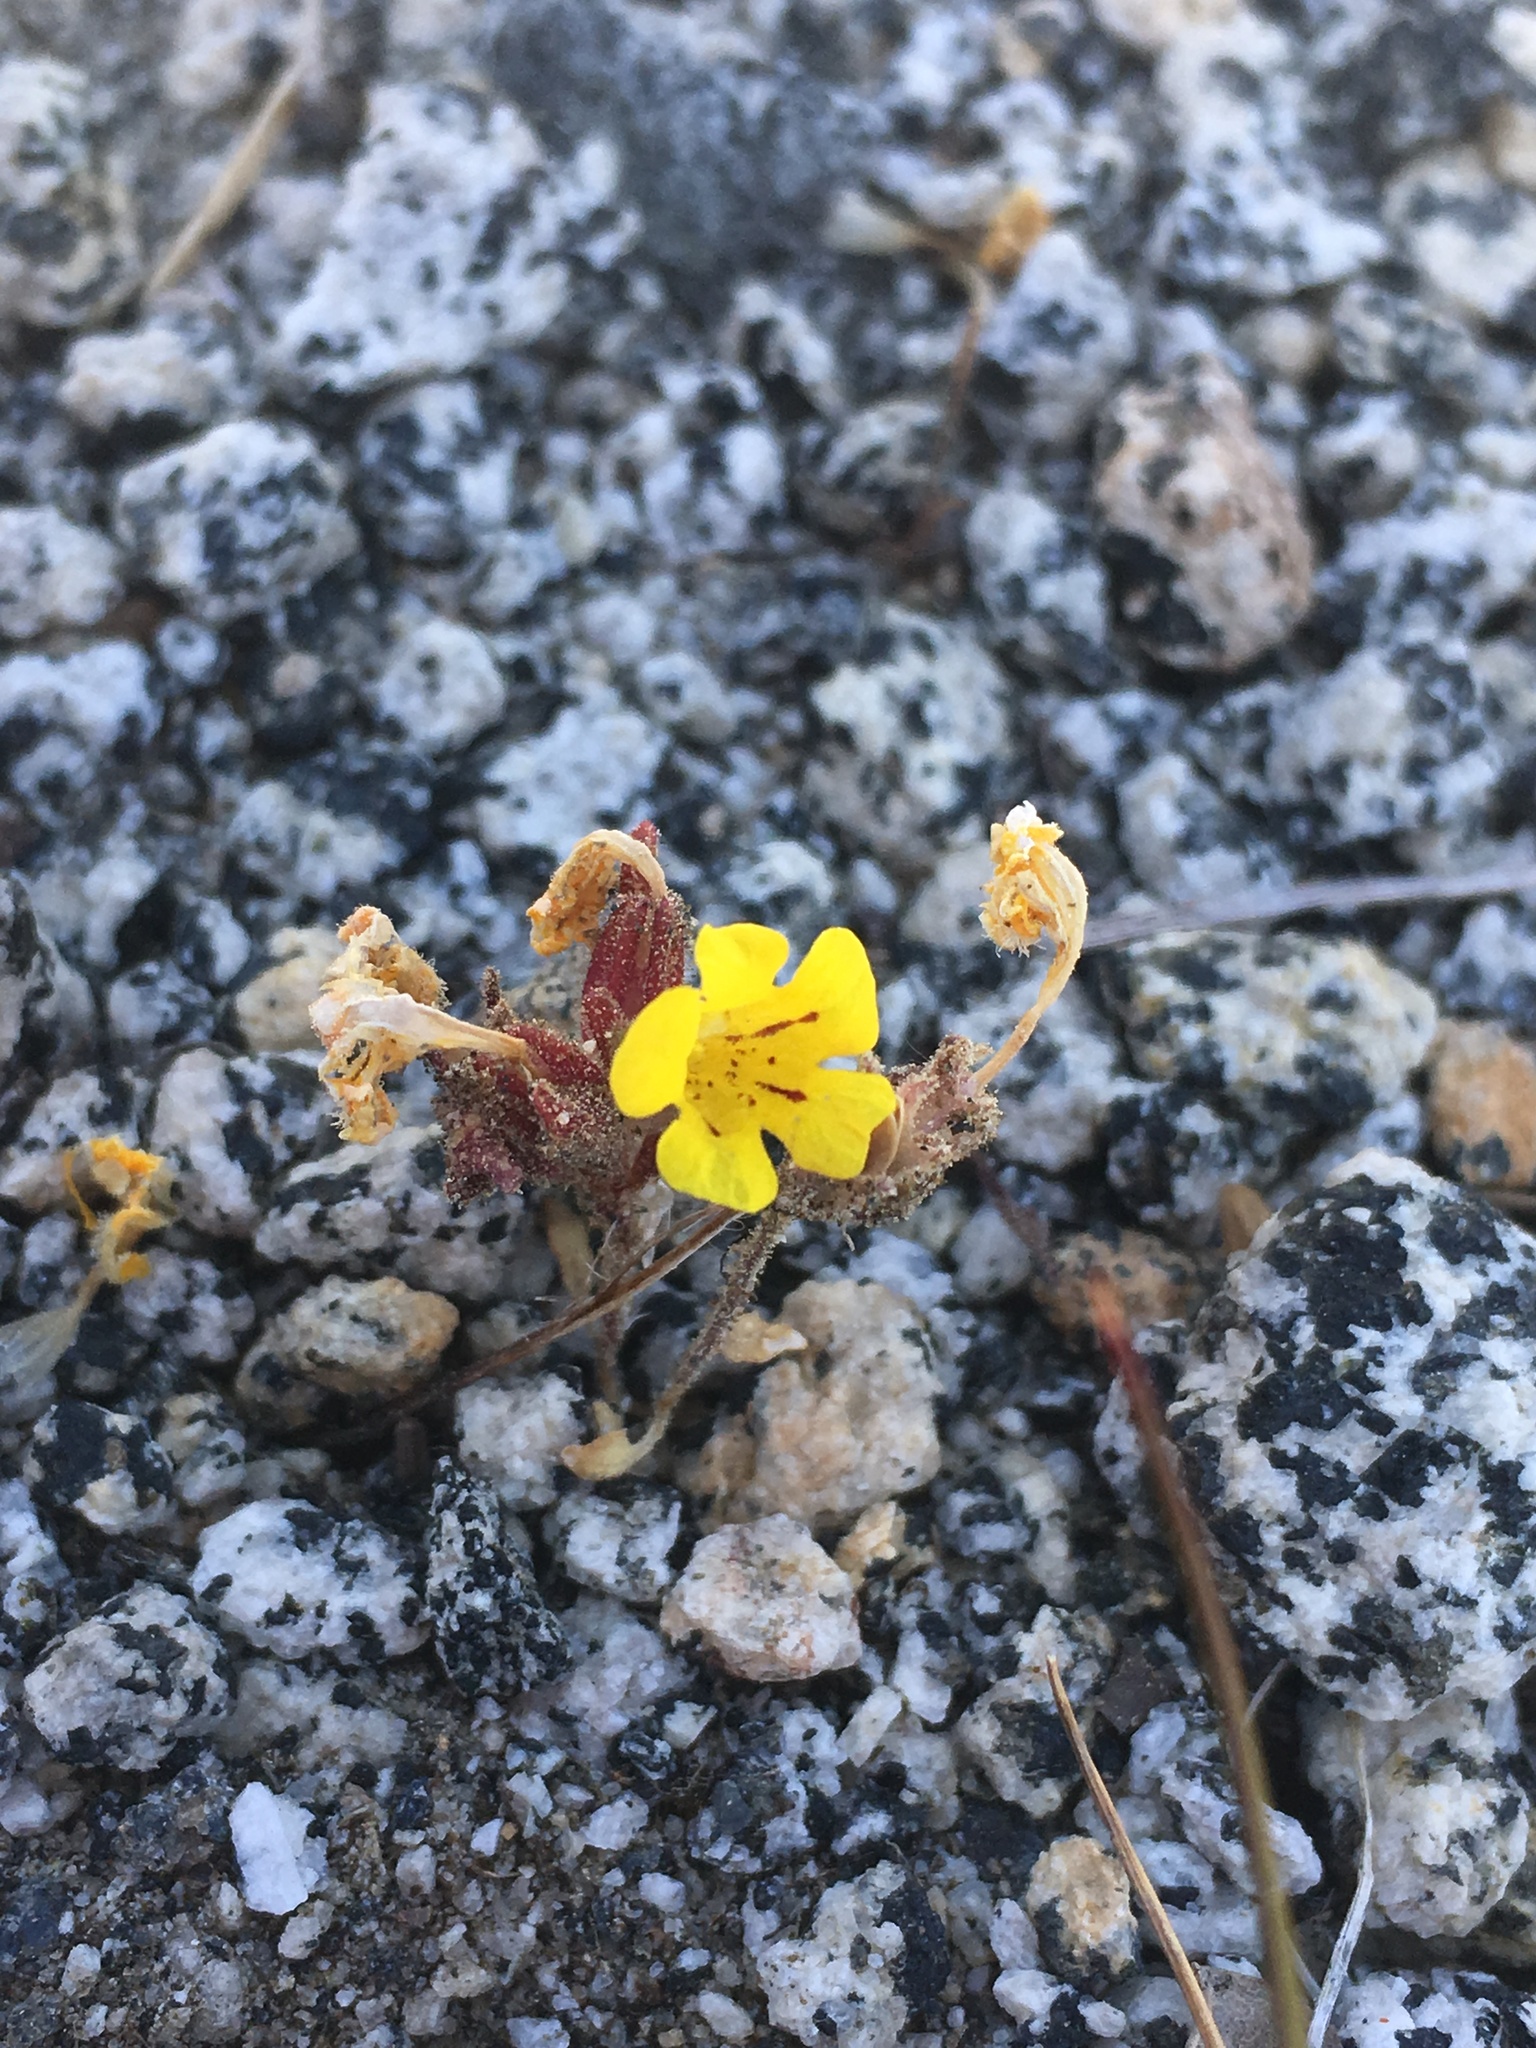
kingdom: Plantae
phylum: Tracheophyta
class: Magnoliopsida
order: Lamiales
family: Phrymaceae
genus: Diplacus
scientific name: Diplacus mephiticus
